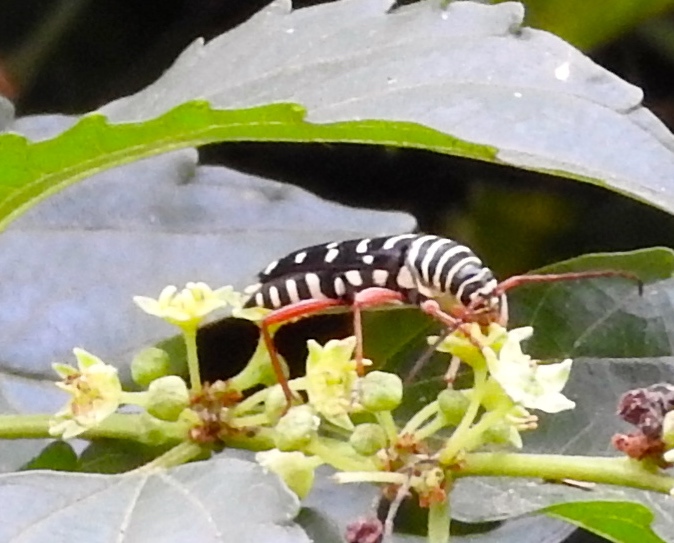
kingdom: Animalia
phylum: Arthropoda
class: Insecta
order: Coleoptera
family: Cerambycidae
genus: Placosternus
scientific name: Placosternus crinicornis
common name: Kiawe round headed borer
